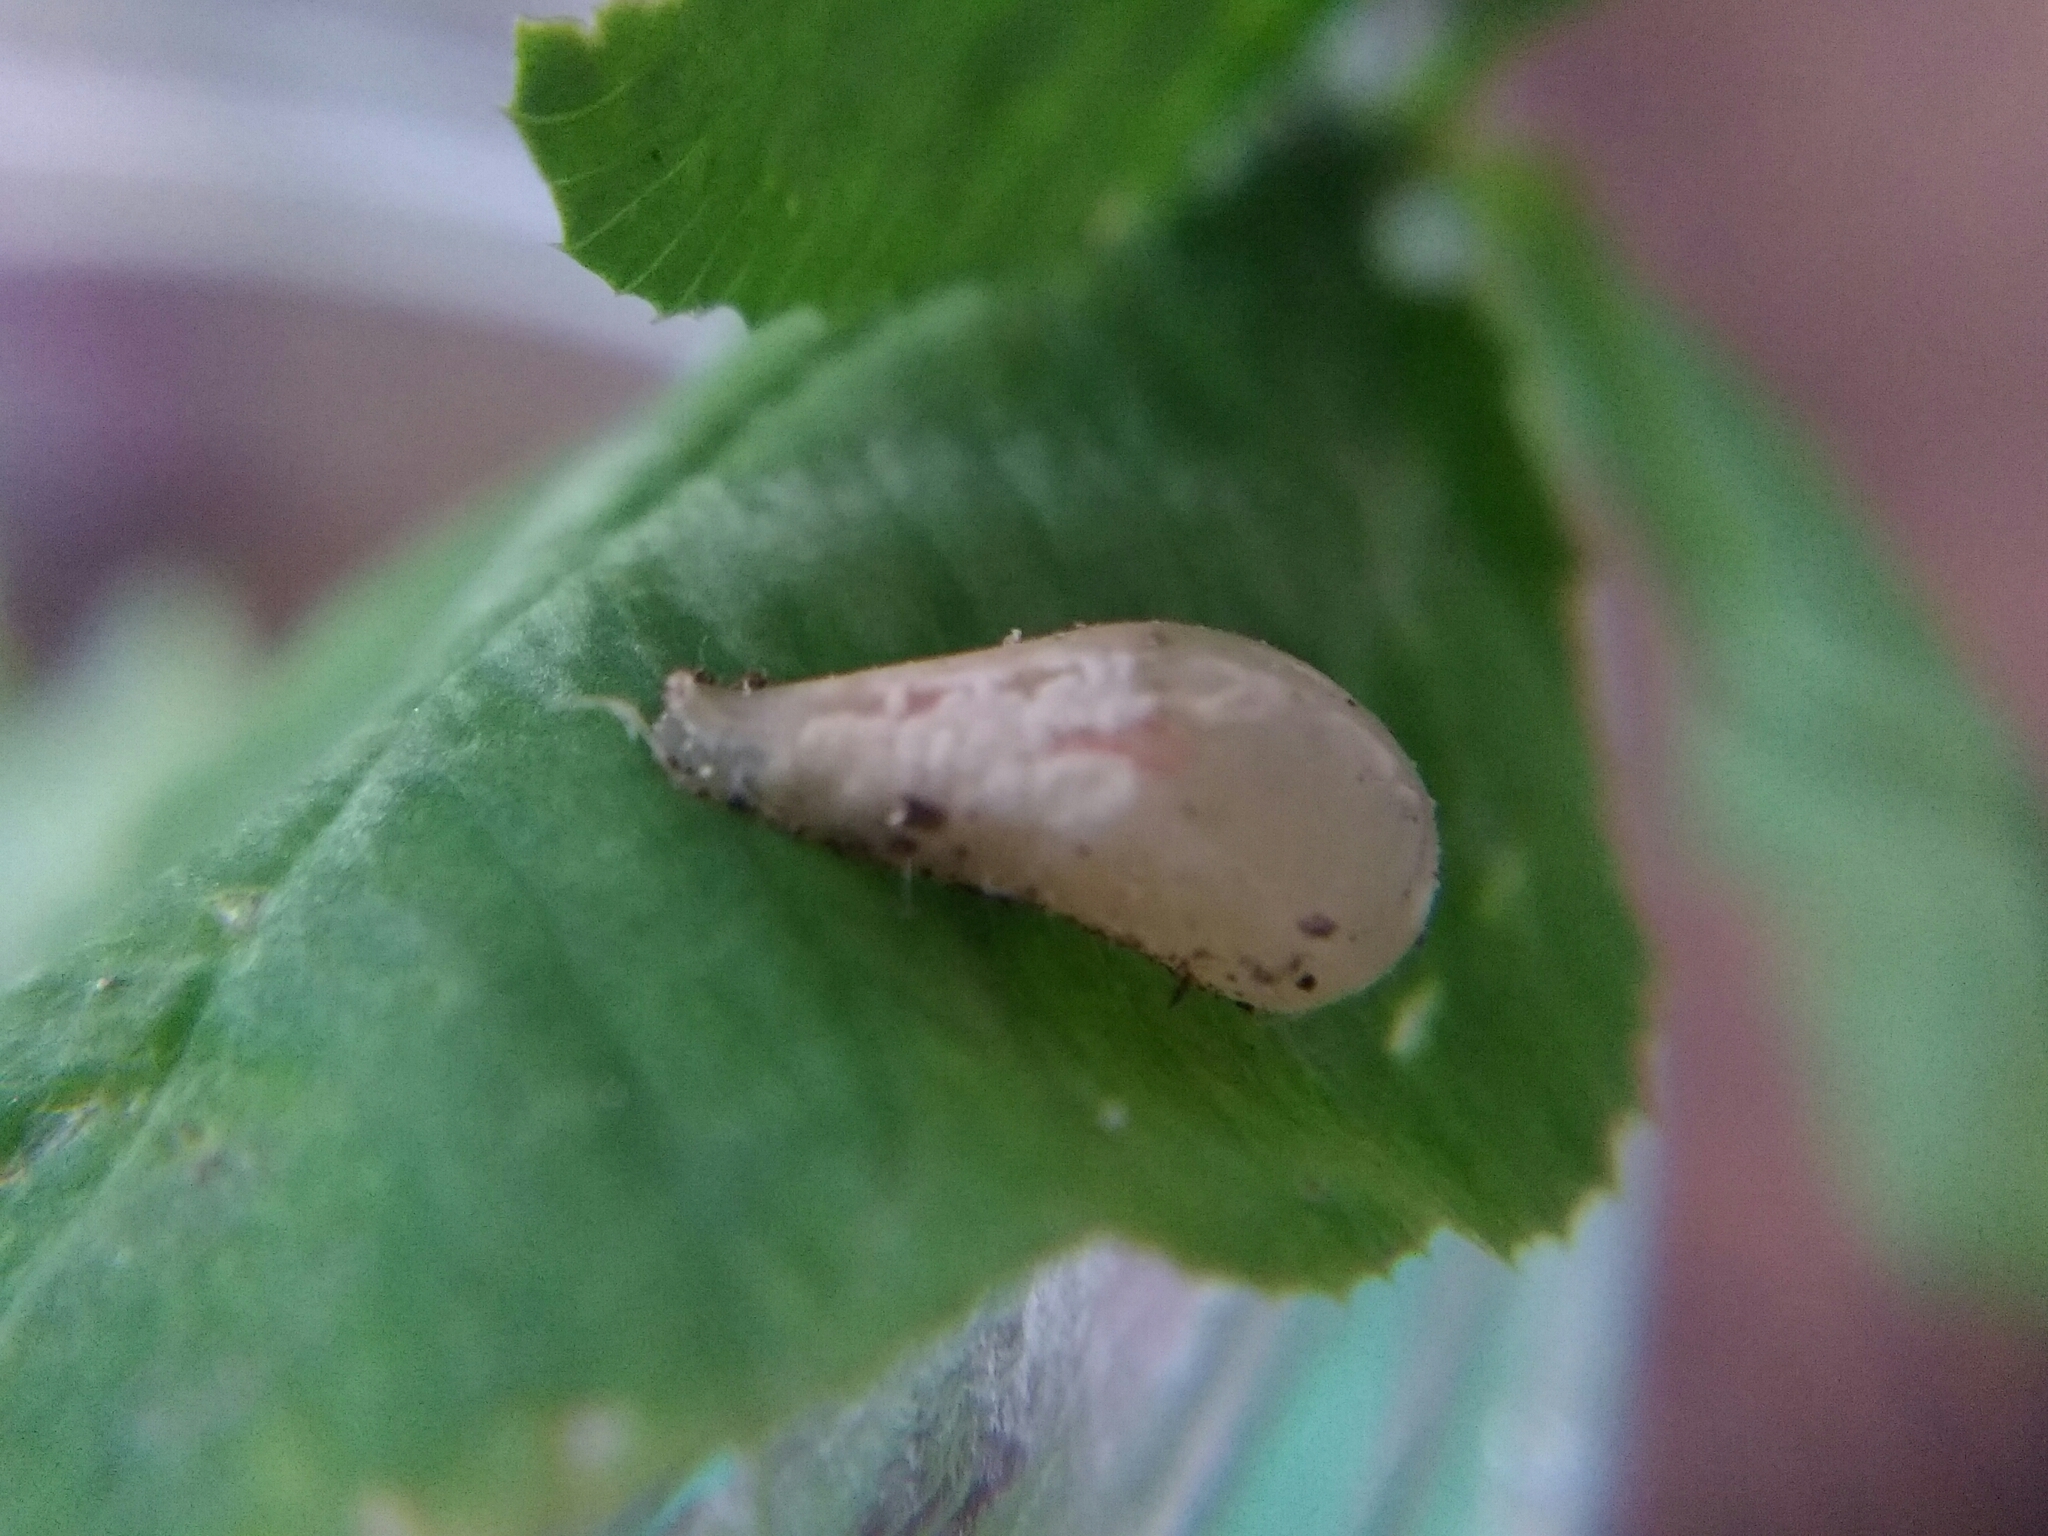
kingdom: Animalia
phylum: Arthropoda
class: Insecta
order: Diptera
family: Syrphidae
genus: Episyrphus
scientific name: Episyrphus balteatus
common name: Marmalade hoverfly
